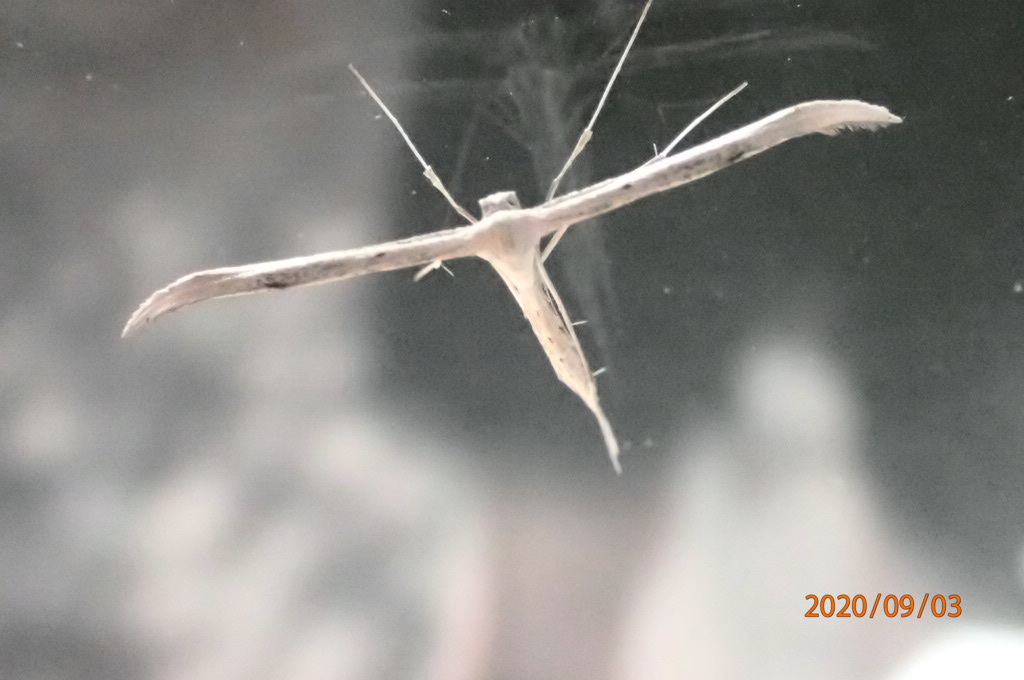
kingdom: Animalia
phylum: Arthropoda
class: Insecta
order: Lepidoptera
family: Pterophoridae
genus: Emmelina
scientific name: Emmelina monodactyla
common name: Common plume
